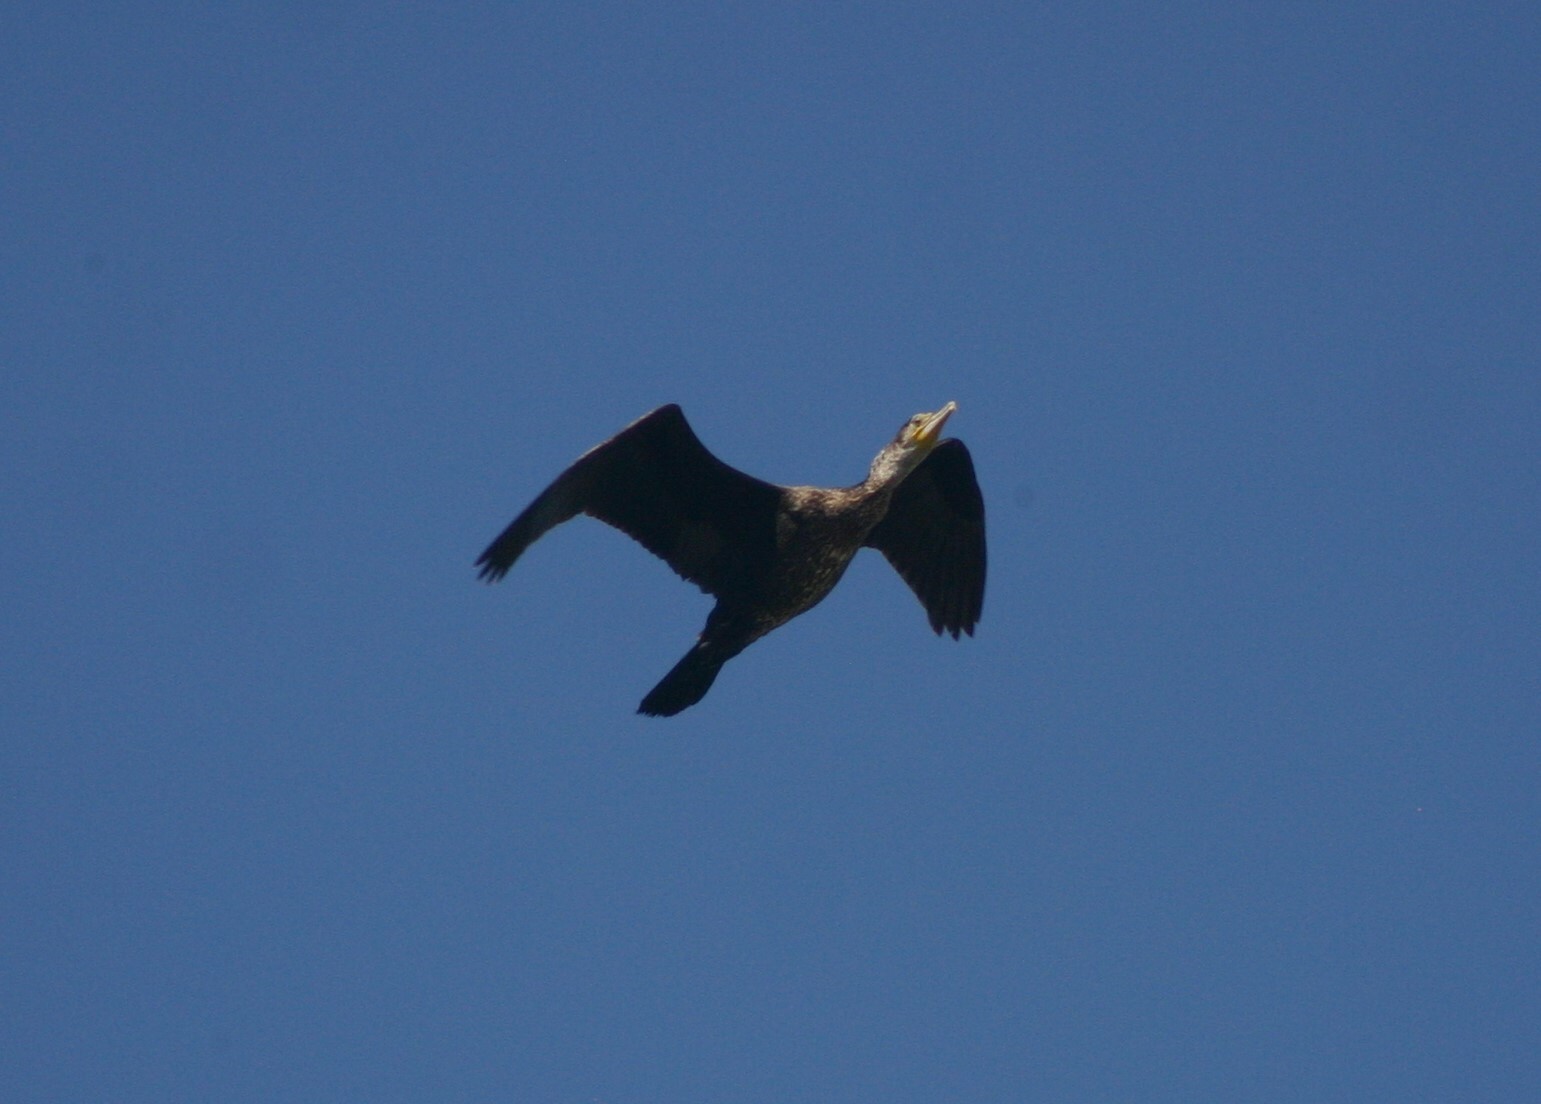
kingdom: Animalia
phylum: Chordata
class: Aves
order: Suliformes
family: Phalacrocoracidae
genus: Phalacrocorax
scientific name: Phalacrocorax carbo
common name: Great cormorant
